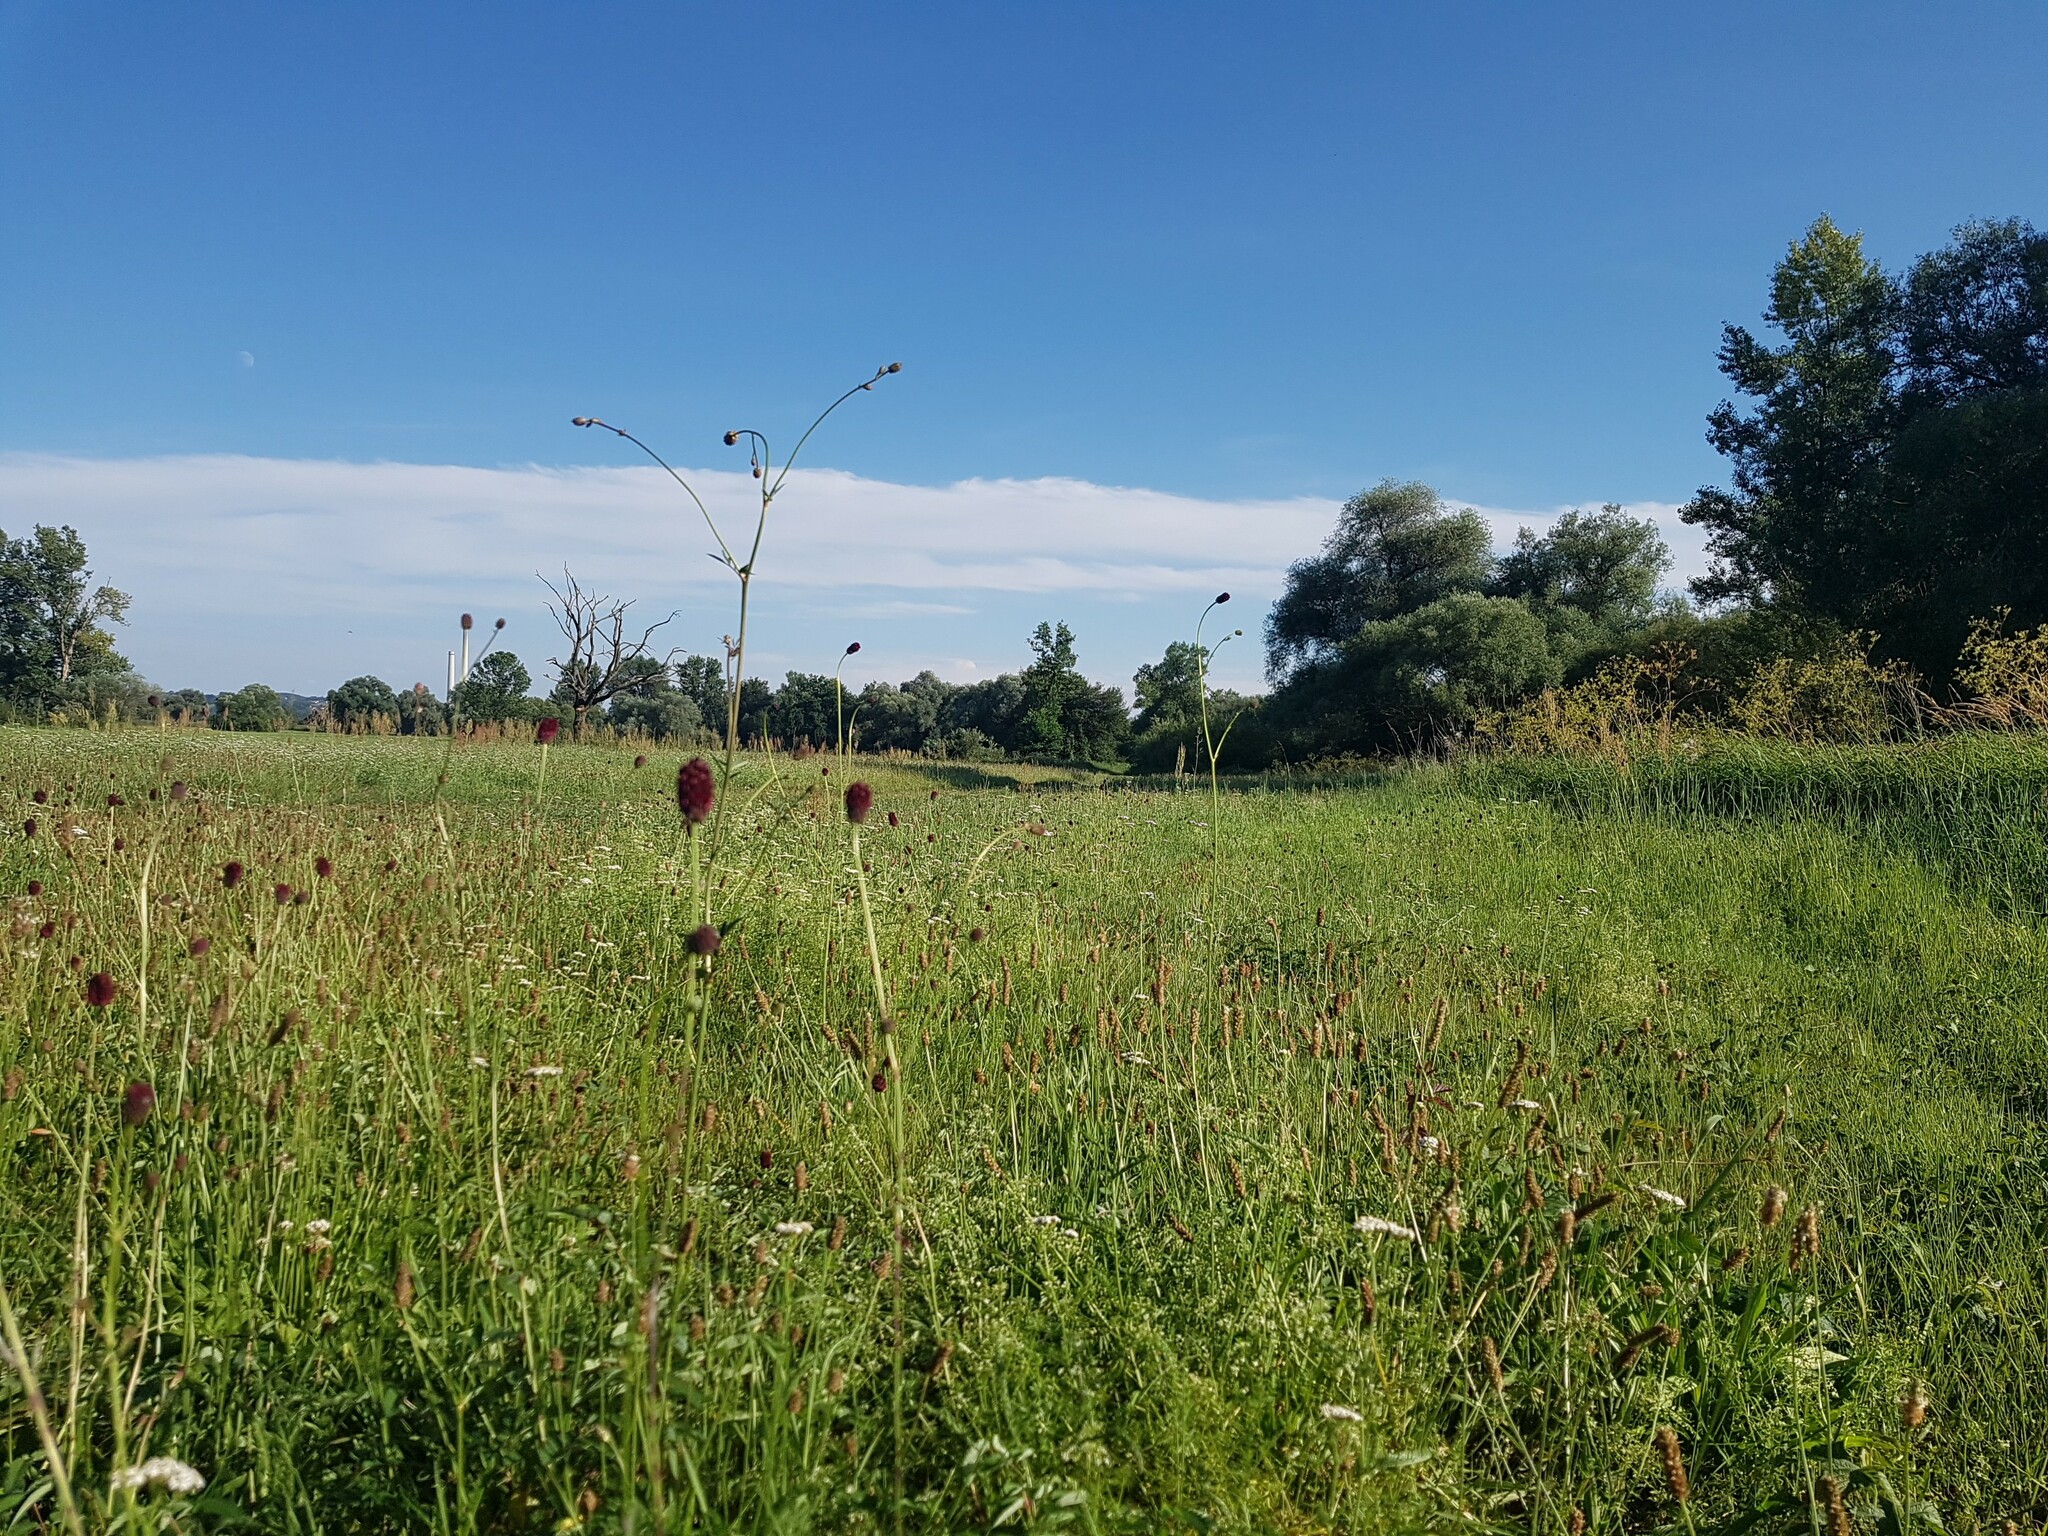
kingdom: Plantae
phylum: Tracheophyta
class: Magnoliopsida
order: Rosales
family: Rosaceae
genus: Sanguisorba
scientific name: Sanguisorba officinalis
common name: Great burnet
